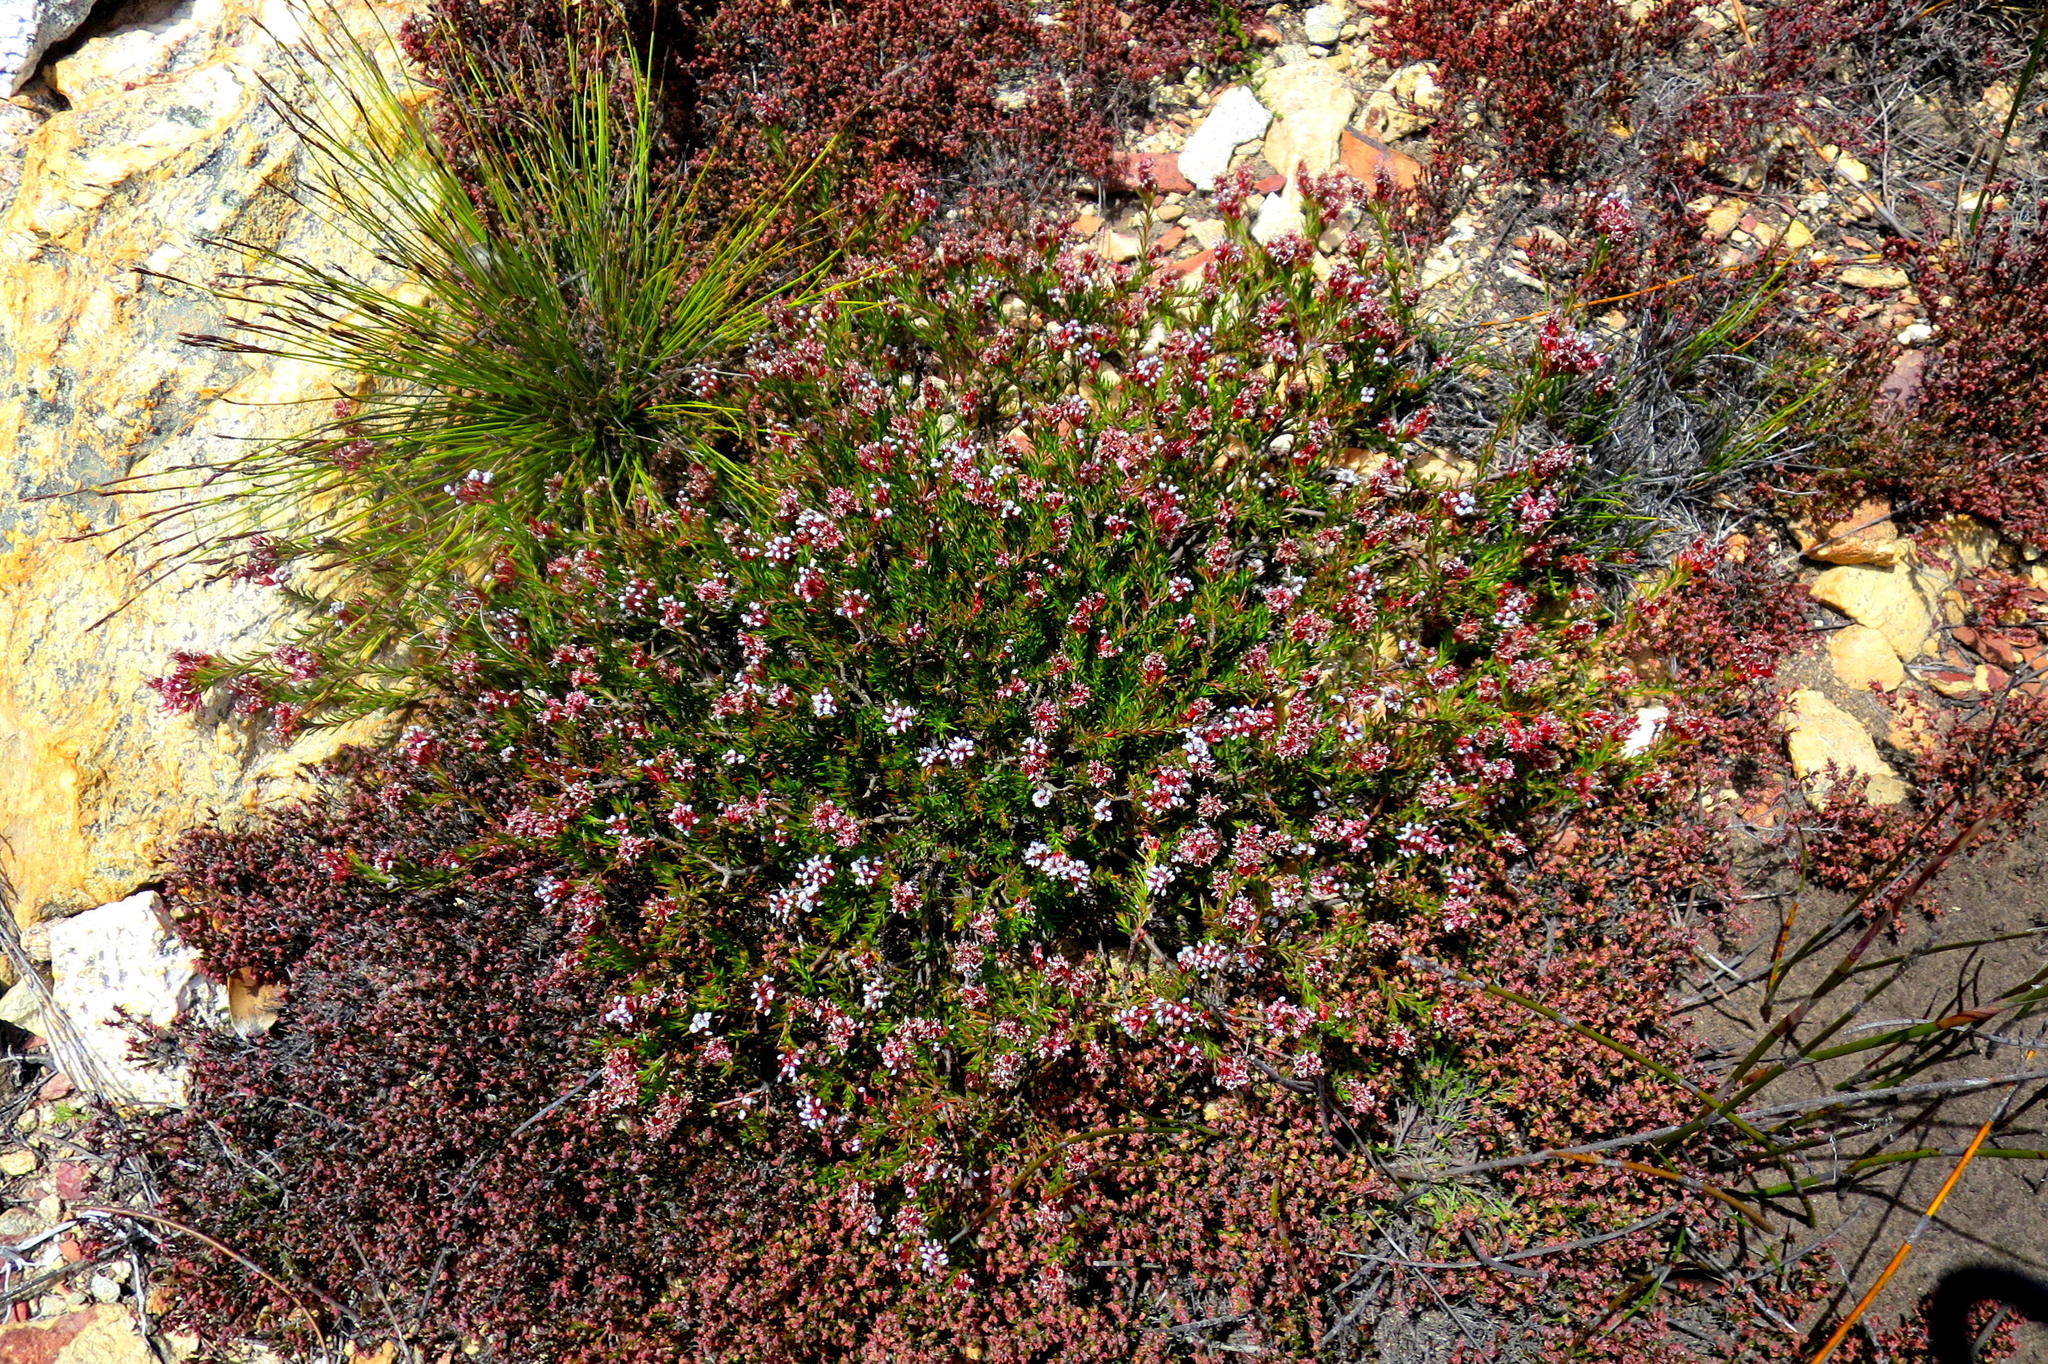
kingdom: Plantae
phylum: Tracheophyta
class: Magnoliopsida
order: Proteales
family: Proteaceae
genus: Spatalla
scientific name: Spatalla confusa
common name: Long-tube spoon
